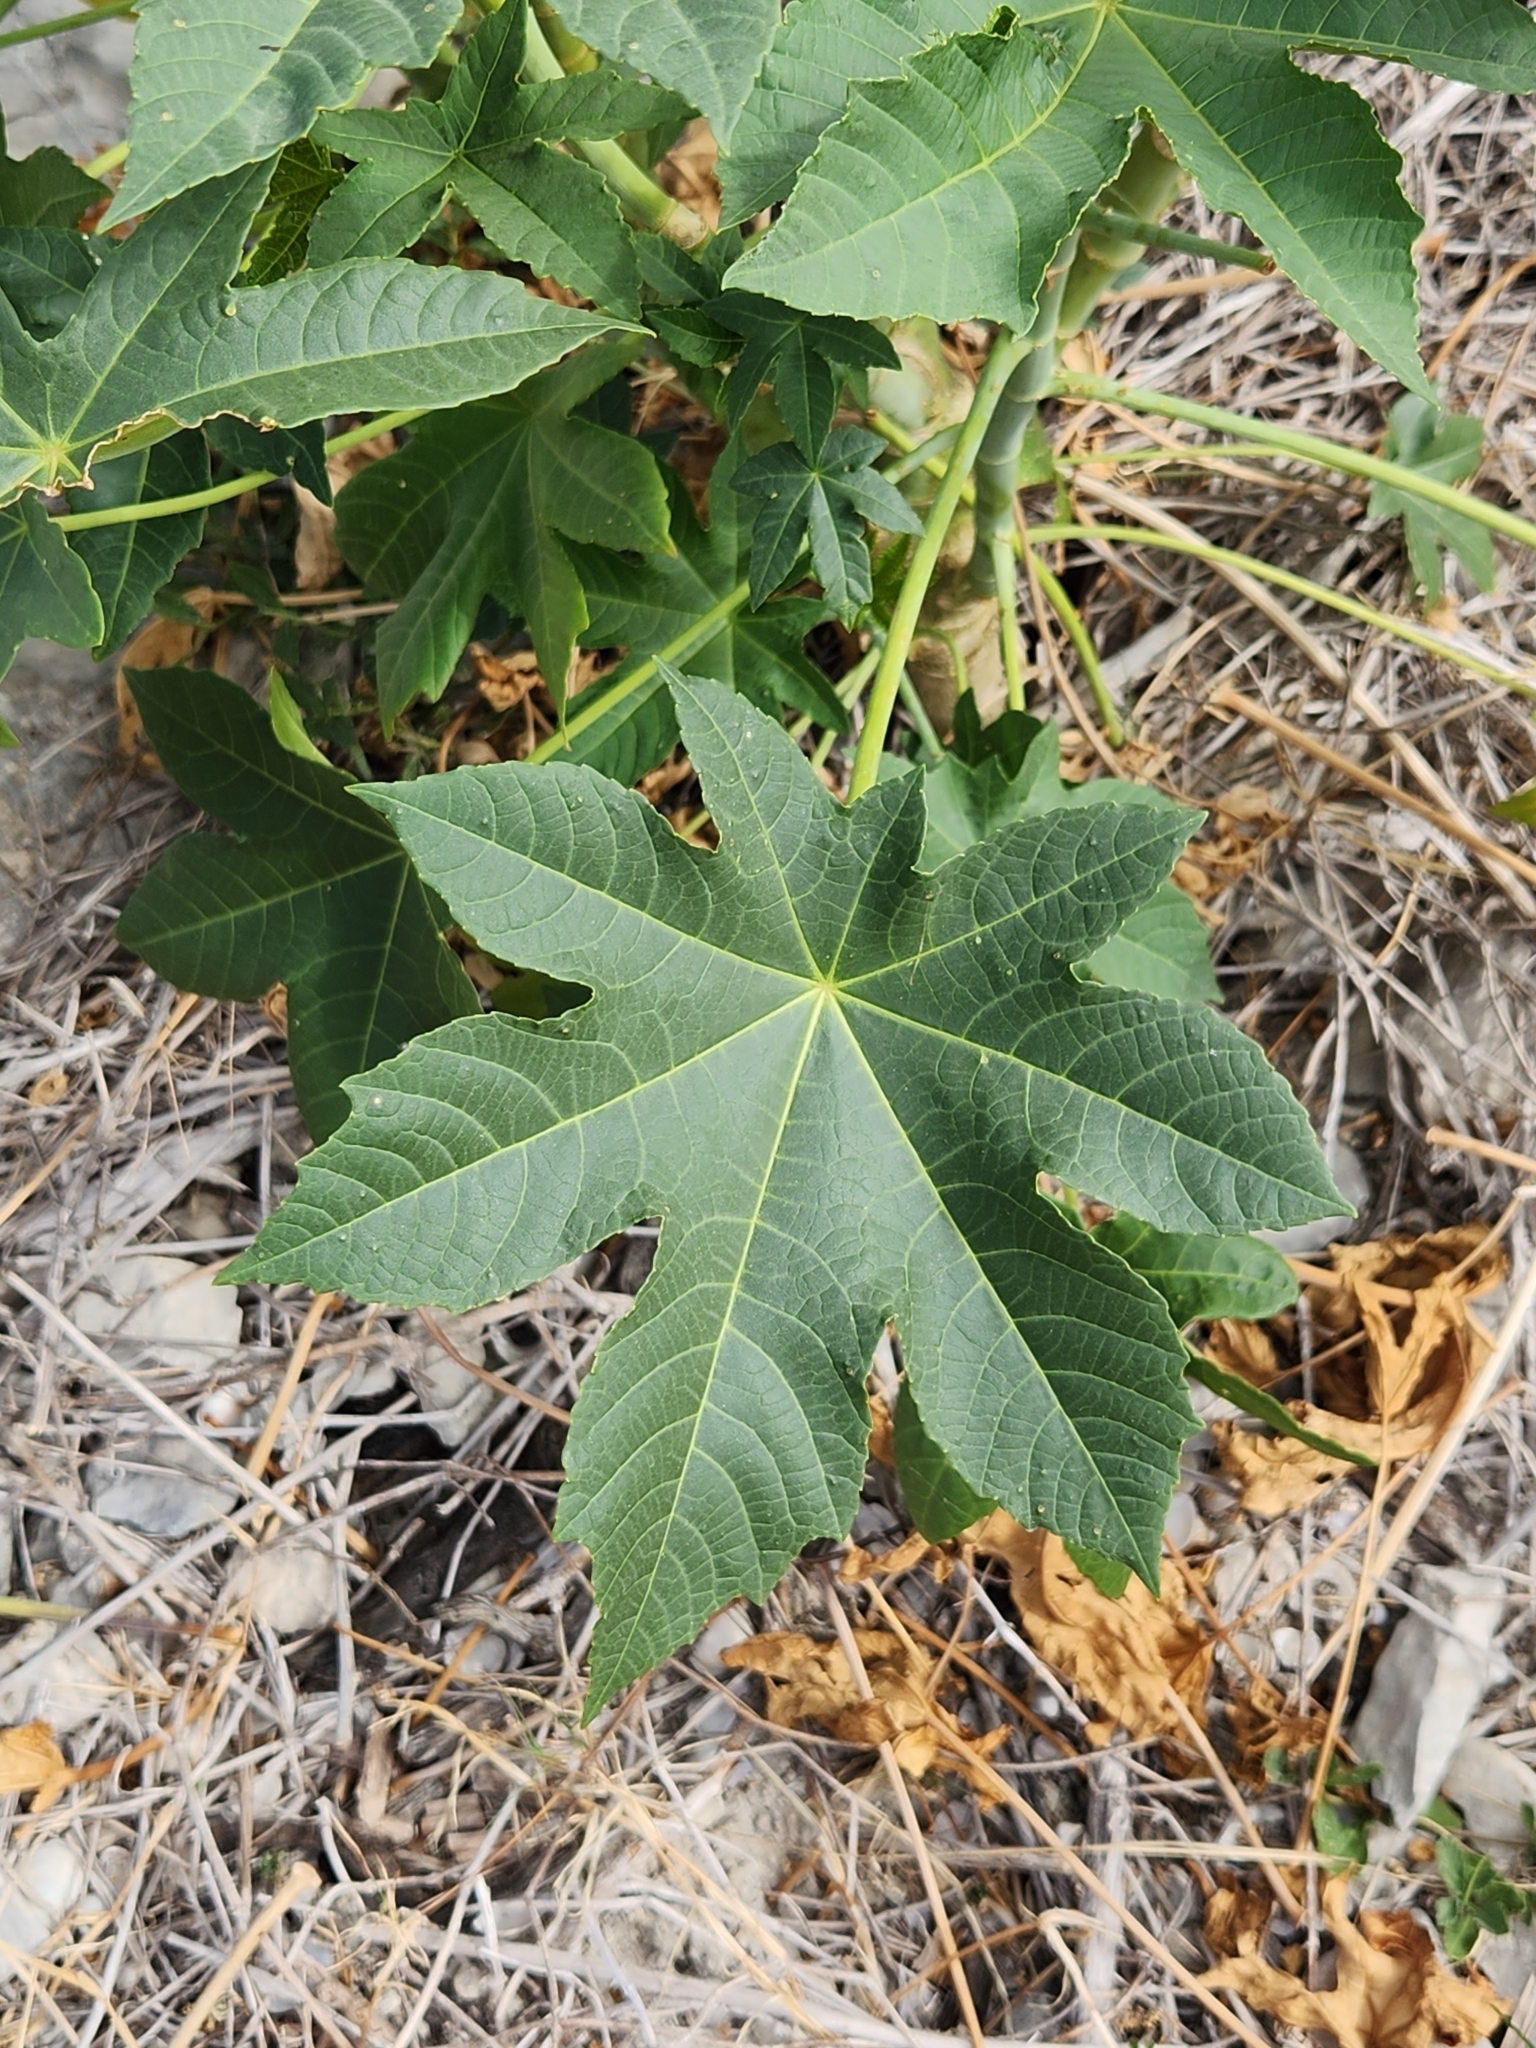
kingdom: Plantae
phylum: Tracheophyta
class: Magnoliopsida
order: Malpighiales
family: Euphorbiaceae
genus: Ricinus
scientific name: Ricinus communis
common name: Castor-oil-plant
